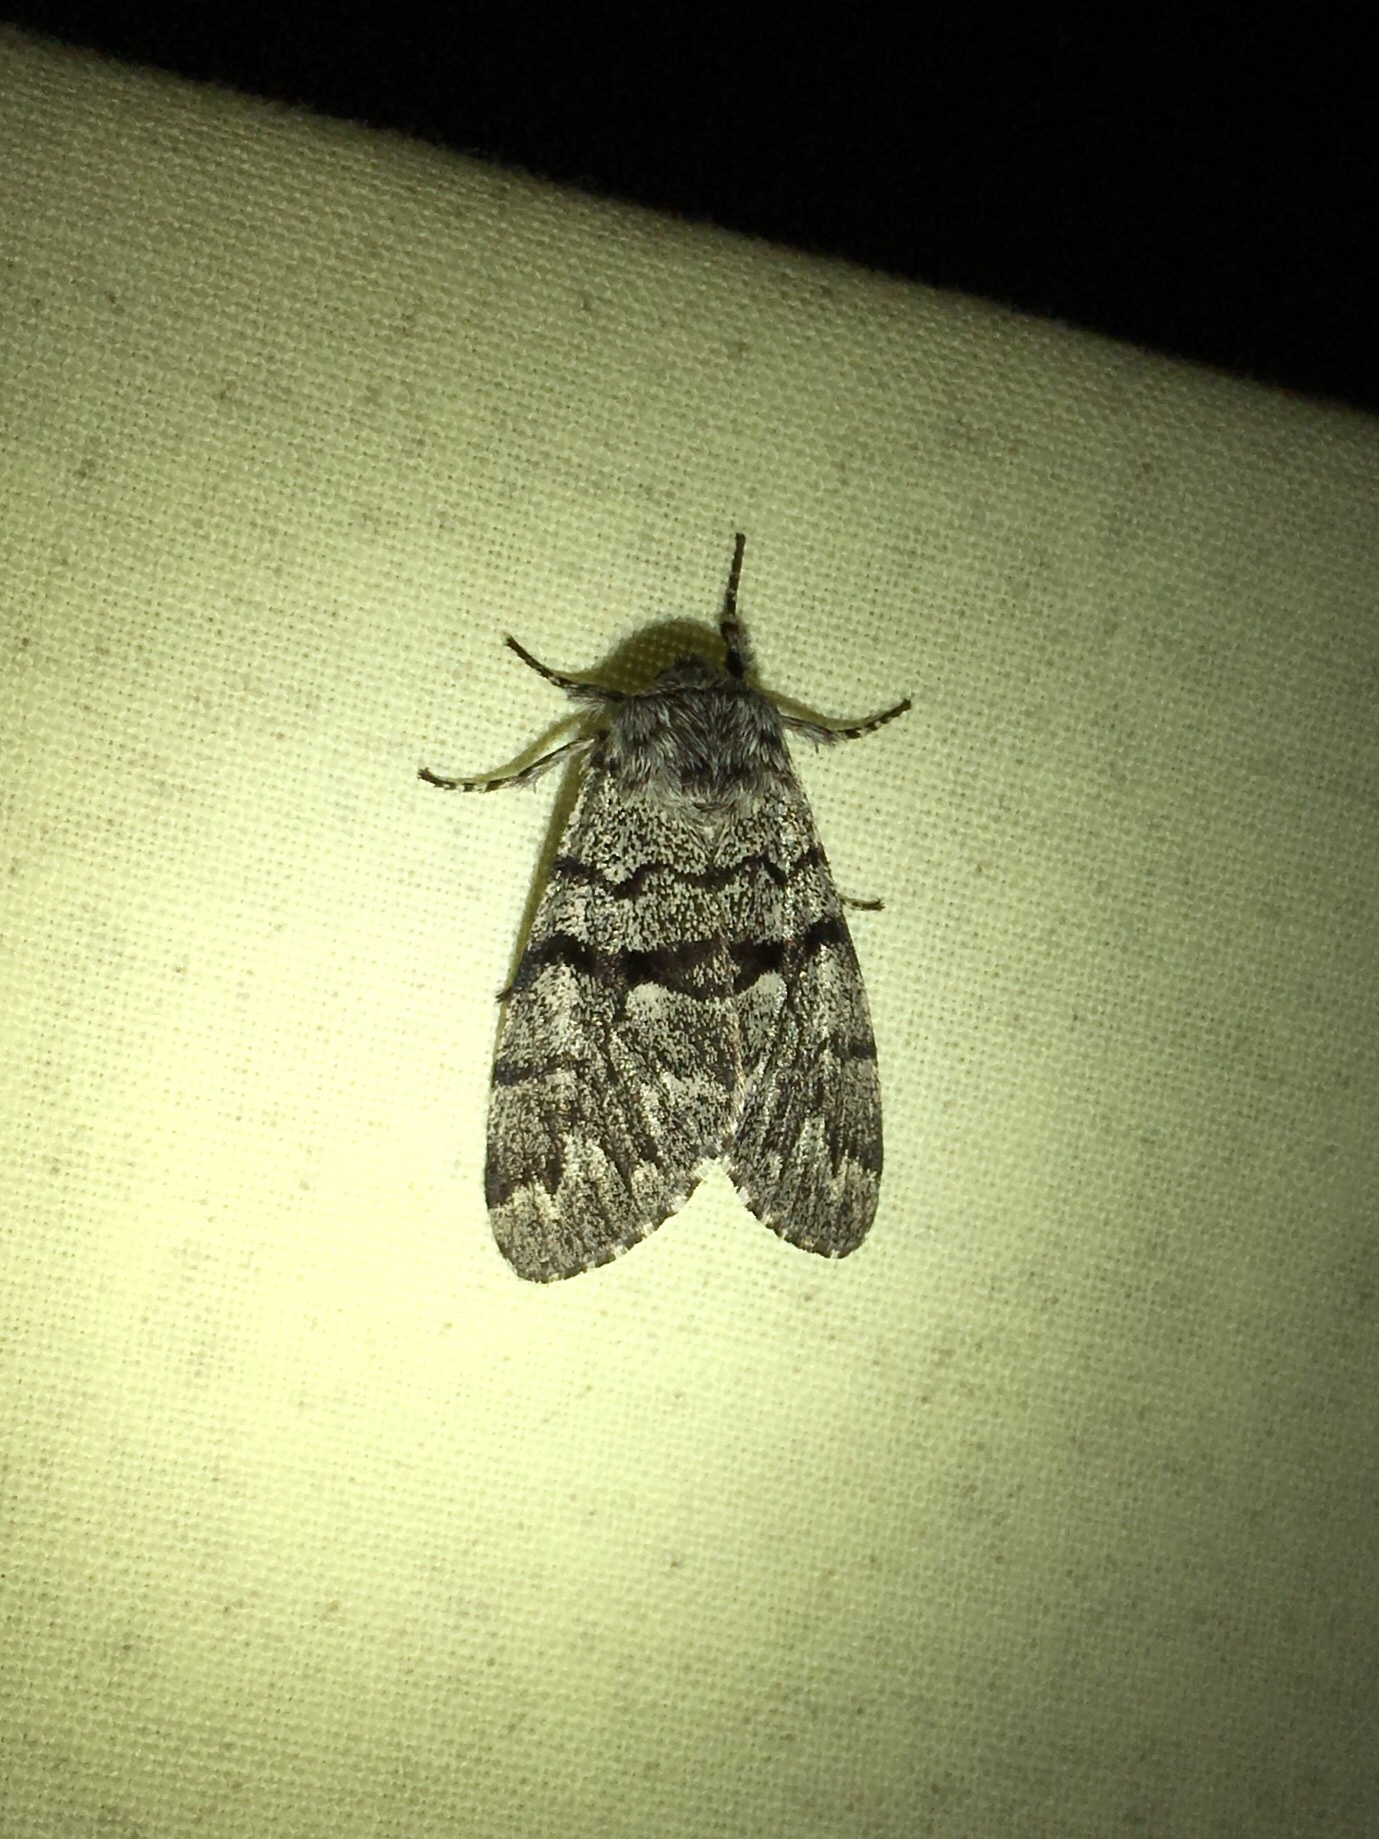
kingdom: Animalia
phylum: Arthropoda
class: Insecta
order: Lepidoptera
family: Noctuidae
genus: Panthea
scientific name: Panthea furcilla
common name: Eastern panthea moth
